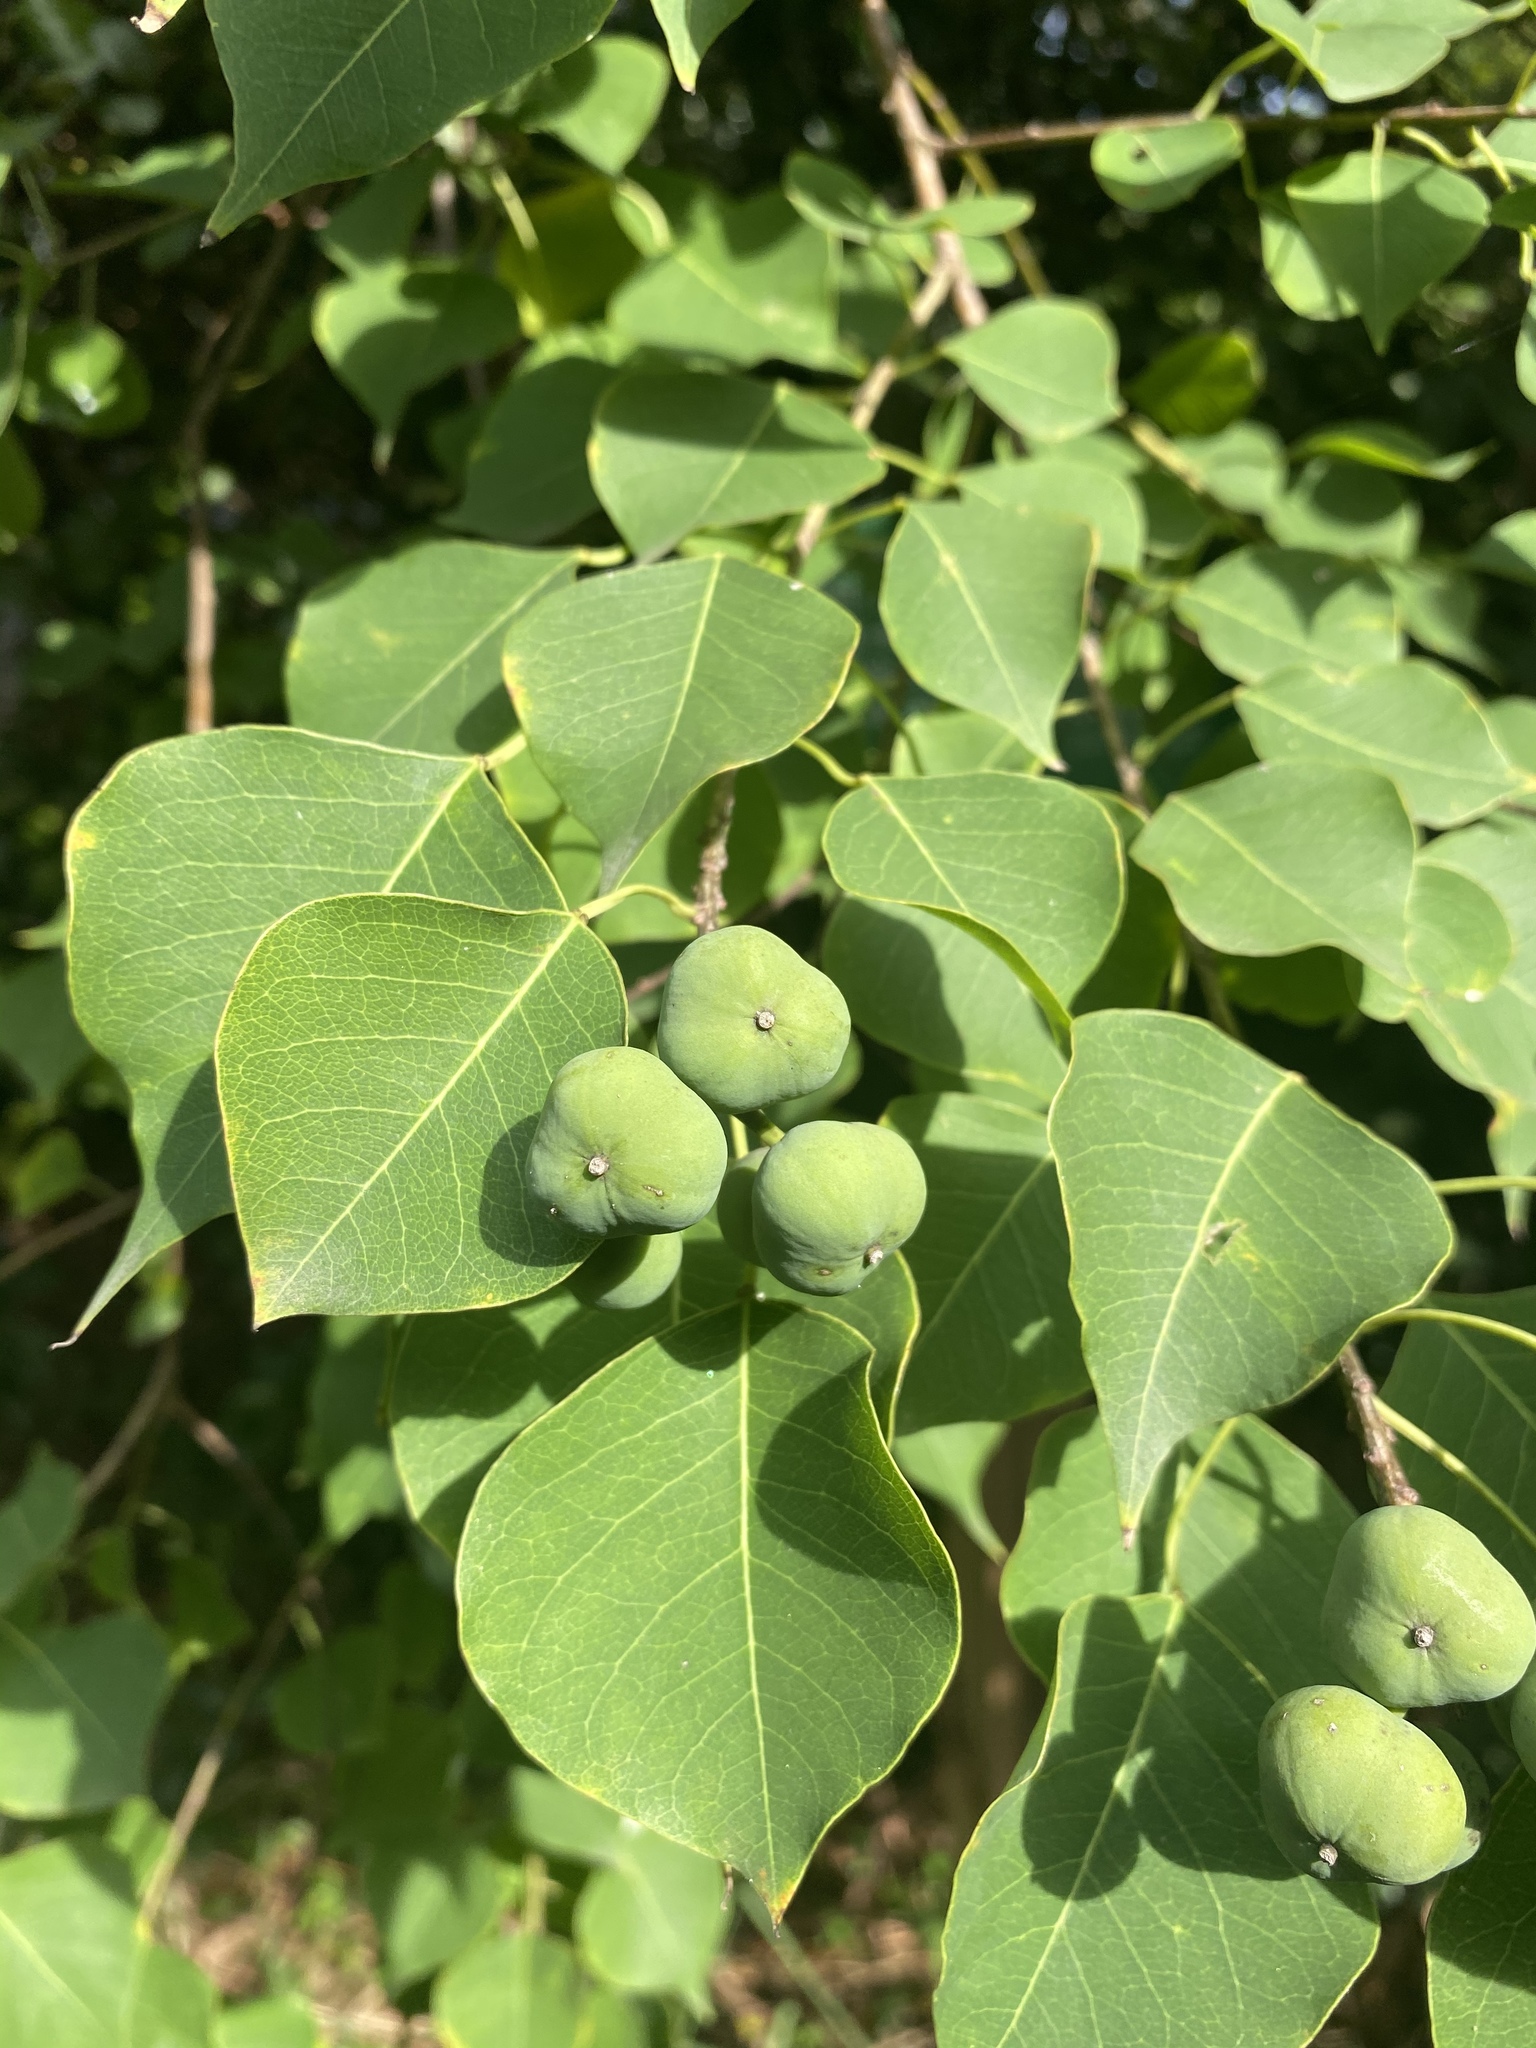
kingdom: Plantae
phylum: Tracheophyta
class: Magnoliopsida
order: Malpighiales
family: Euphorbiaceae
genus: Triadica
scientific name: Triadica sebifera
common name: Chinese tallow
